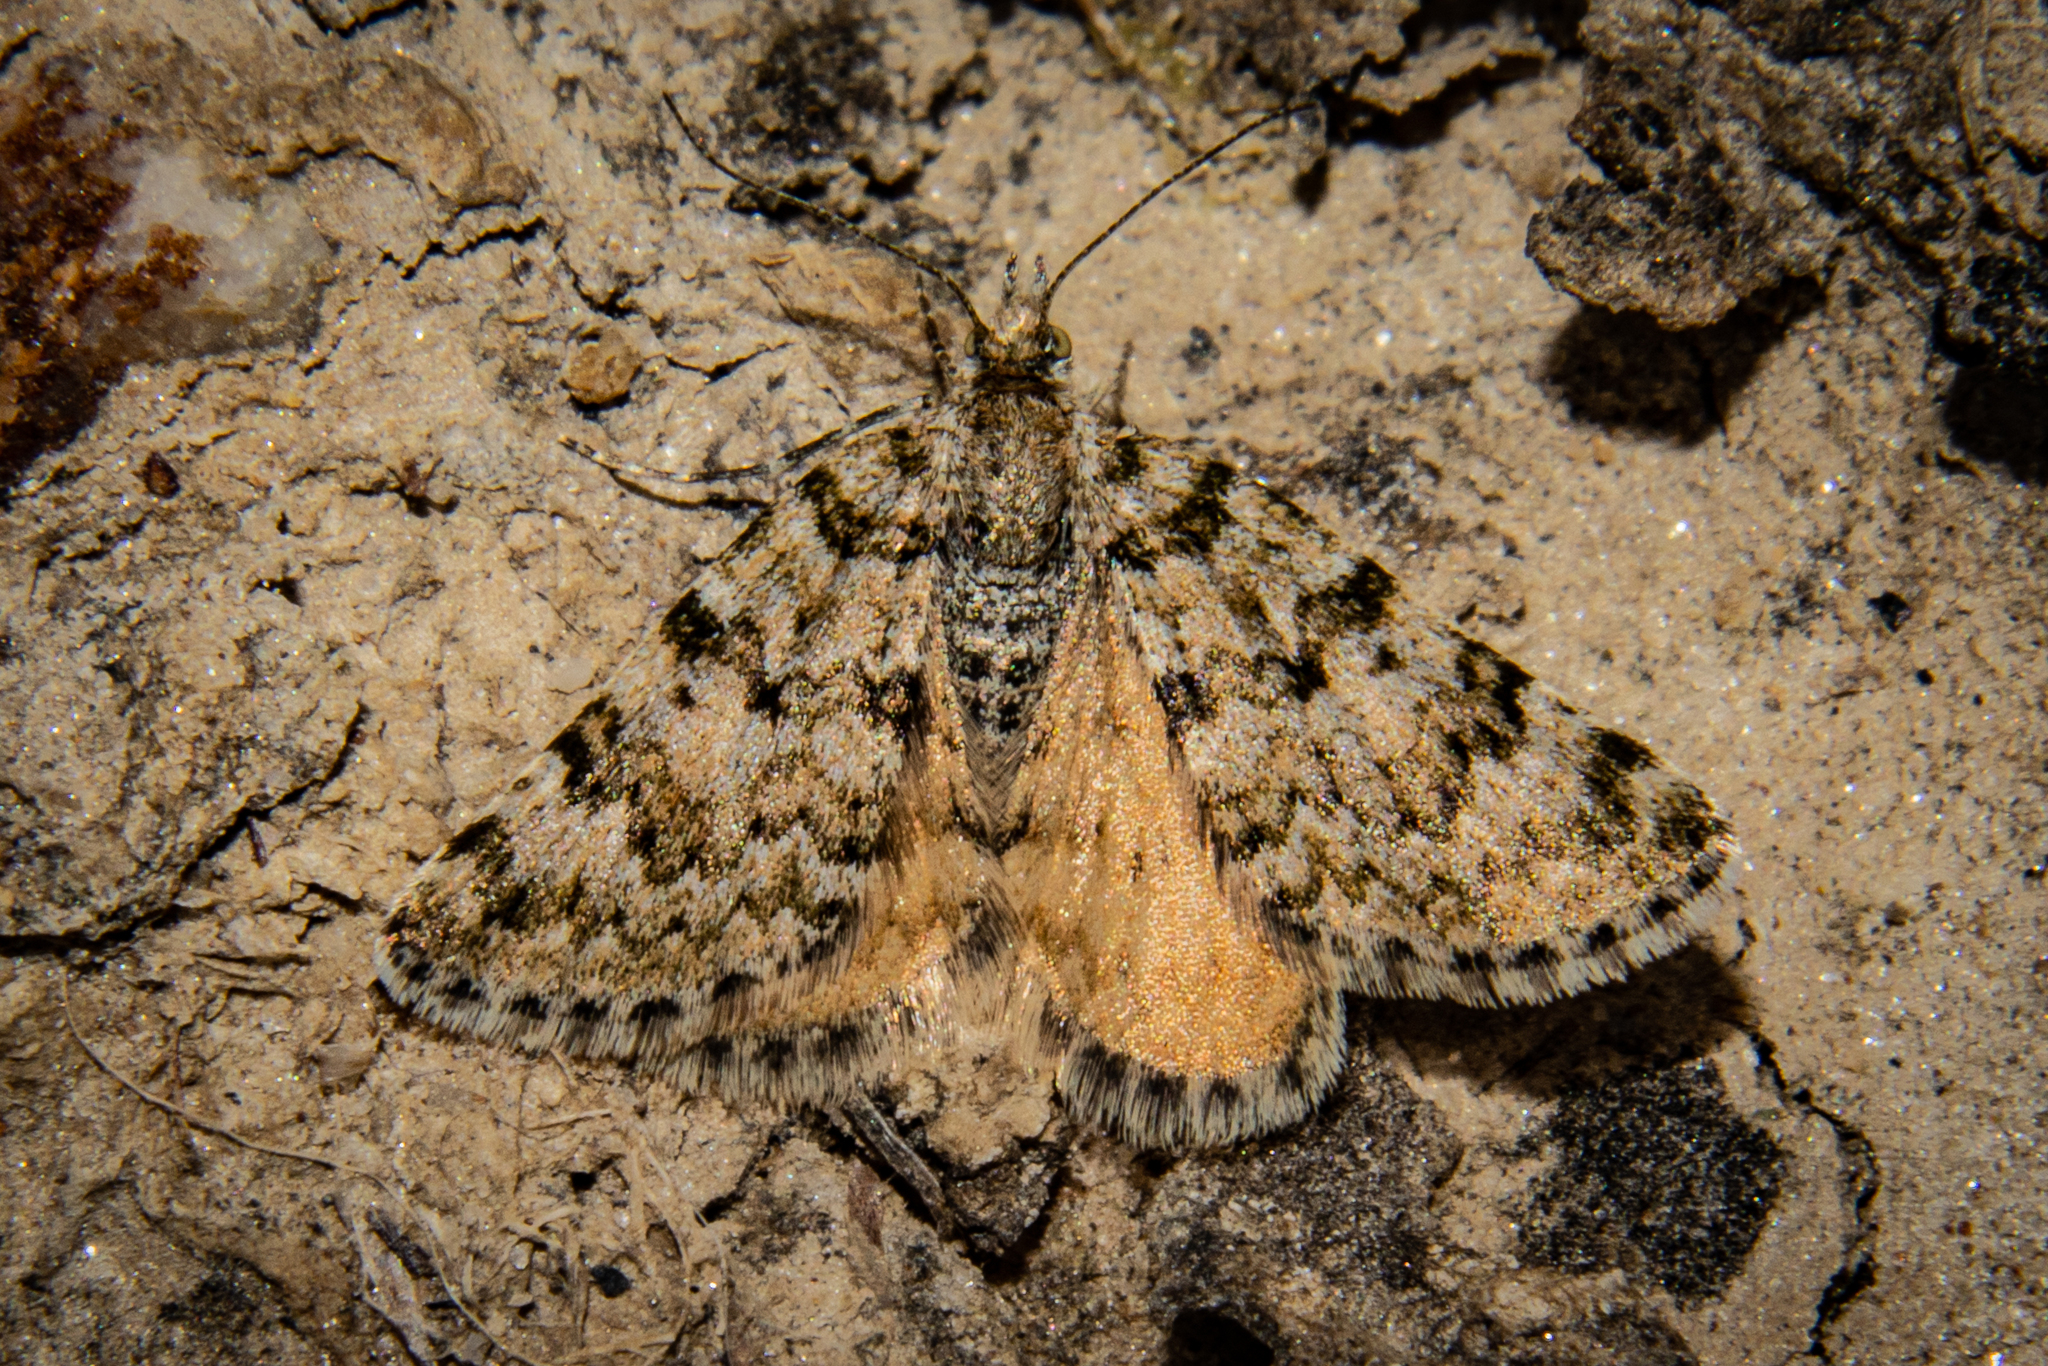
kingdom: Animalia
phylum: Arthropoda
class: Insecta
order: Lepidoptera
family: Geometridae
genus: Paranotoreas
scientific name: Paranotoreas fulva
